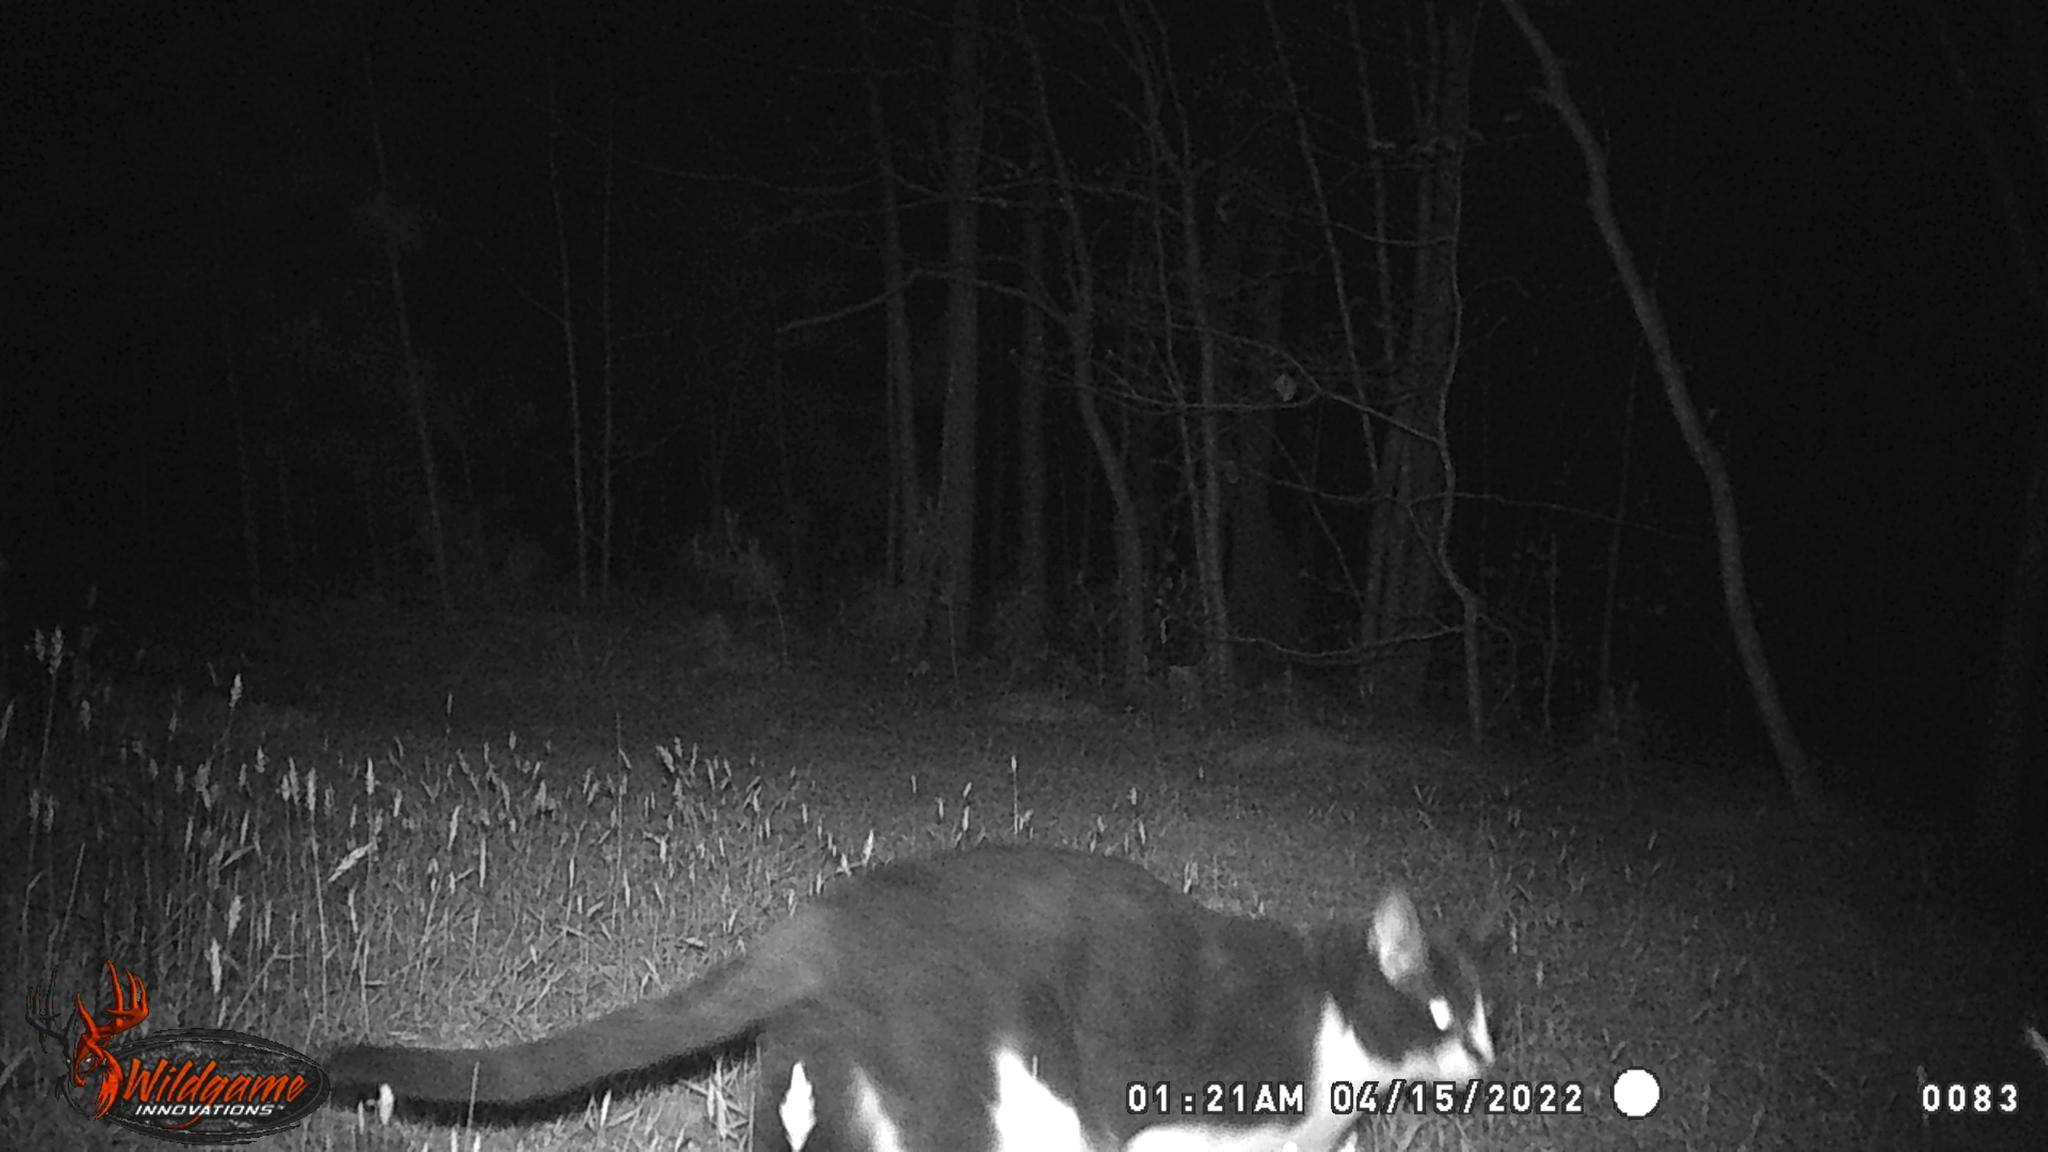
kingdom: Animalia
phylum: Chordata
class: Mammalia
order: Carnivora
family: Felidae
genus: Felis
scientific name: Felis catus
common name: Domestic cat
